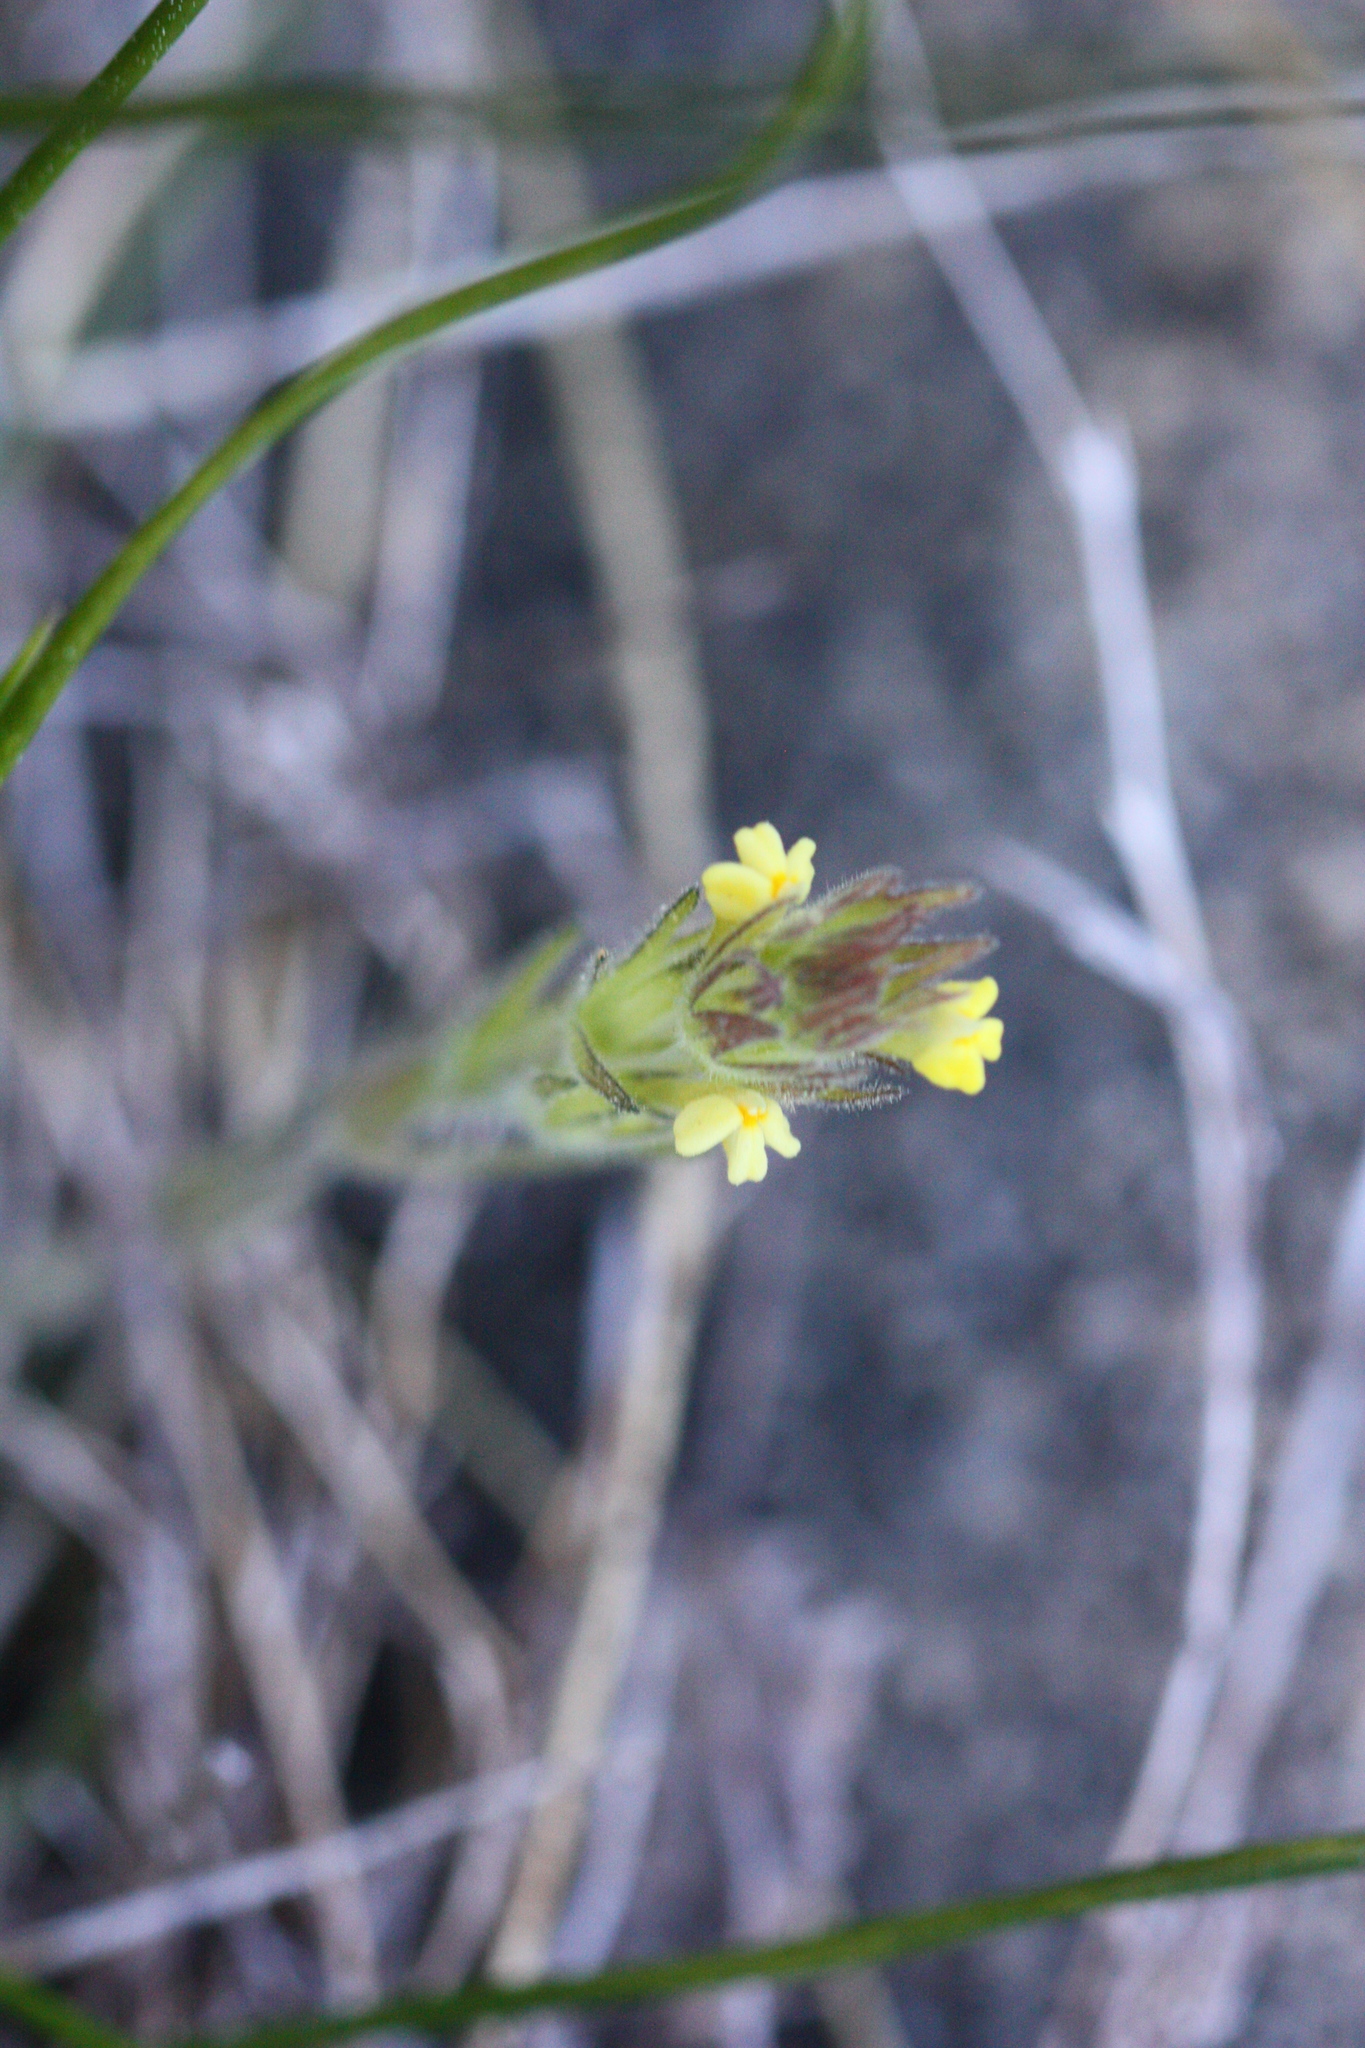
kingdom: Plantae
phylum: Tracheophyta
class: Magnoliopsida
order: Lamiales
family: Orobanchaceae
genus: Castilleja
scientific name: Castilleja tenuis
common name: Hairy indian paintbrush
